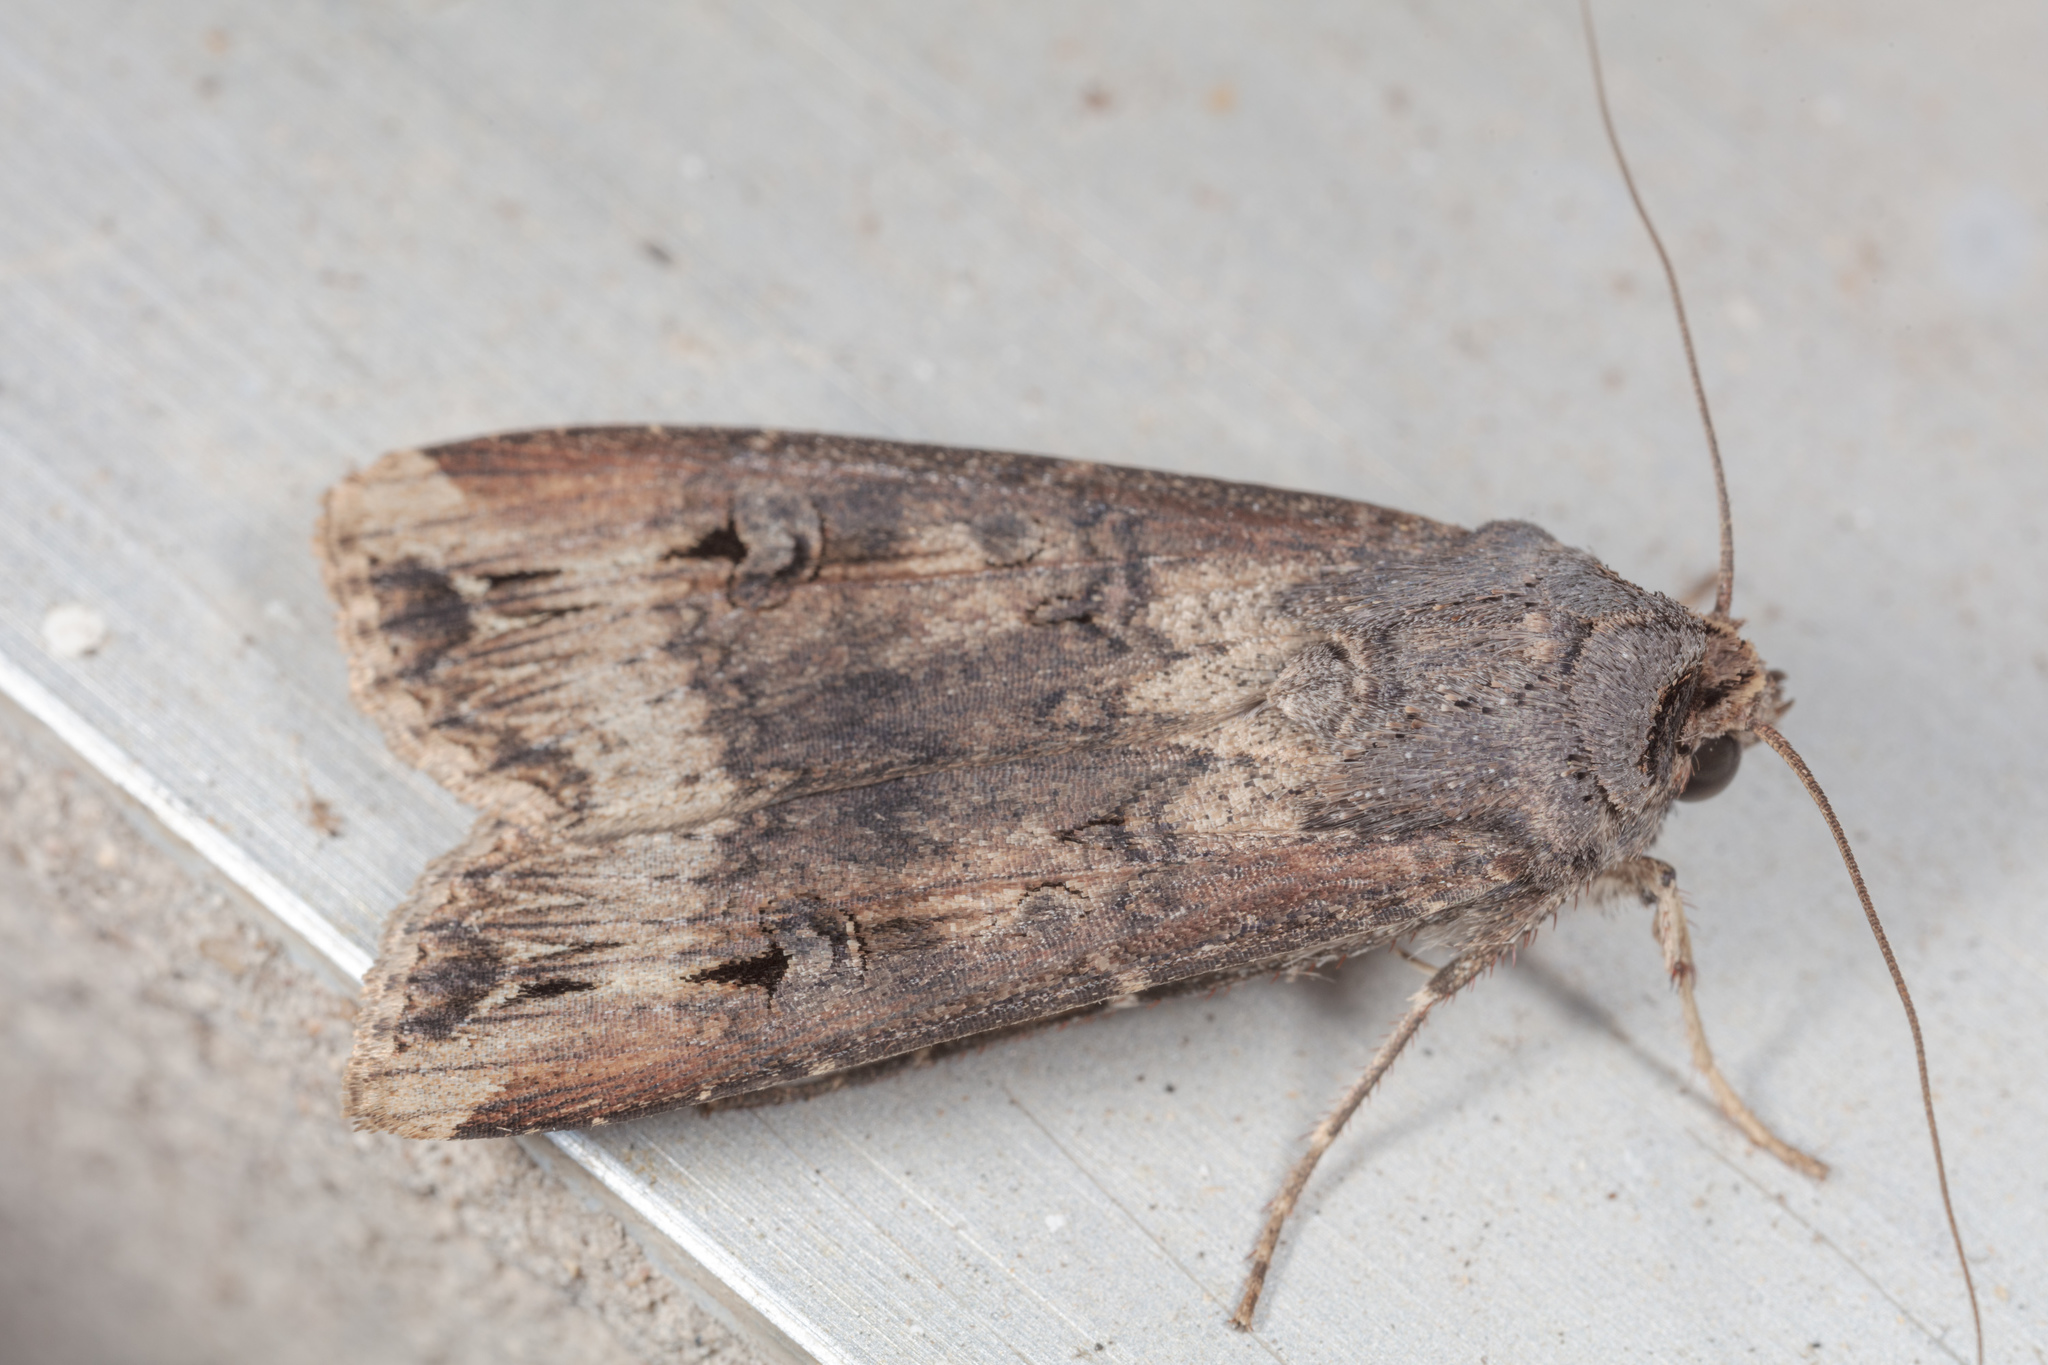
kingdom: Animalia
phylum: Arthropoda
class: Insecta
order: Lepidoptera
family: Noctuidae
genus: Agrotis
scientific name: Agrotis ipsilon
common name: Dark sword-grass
